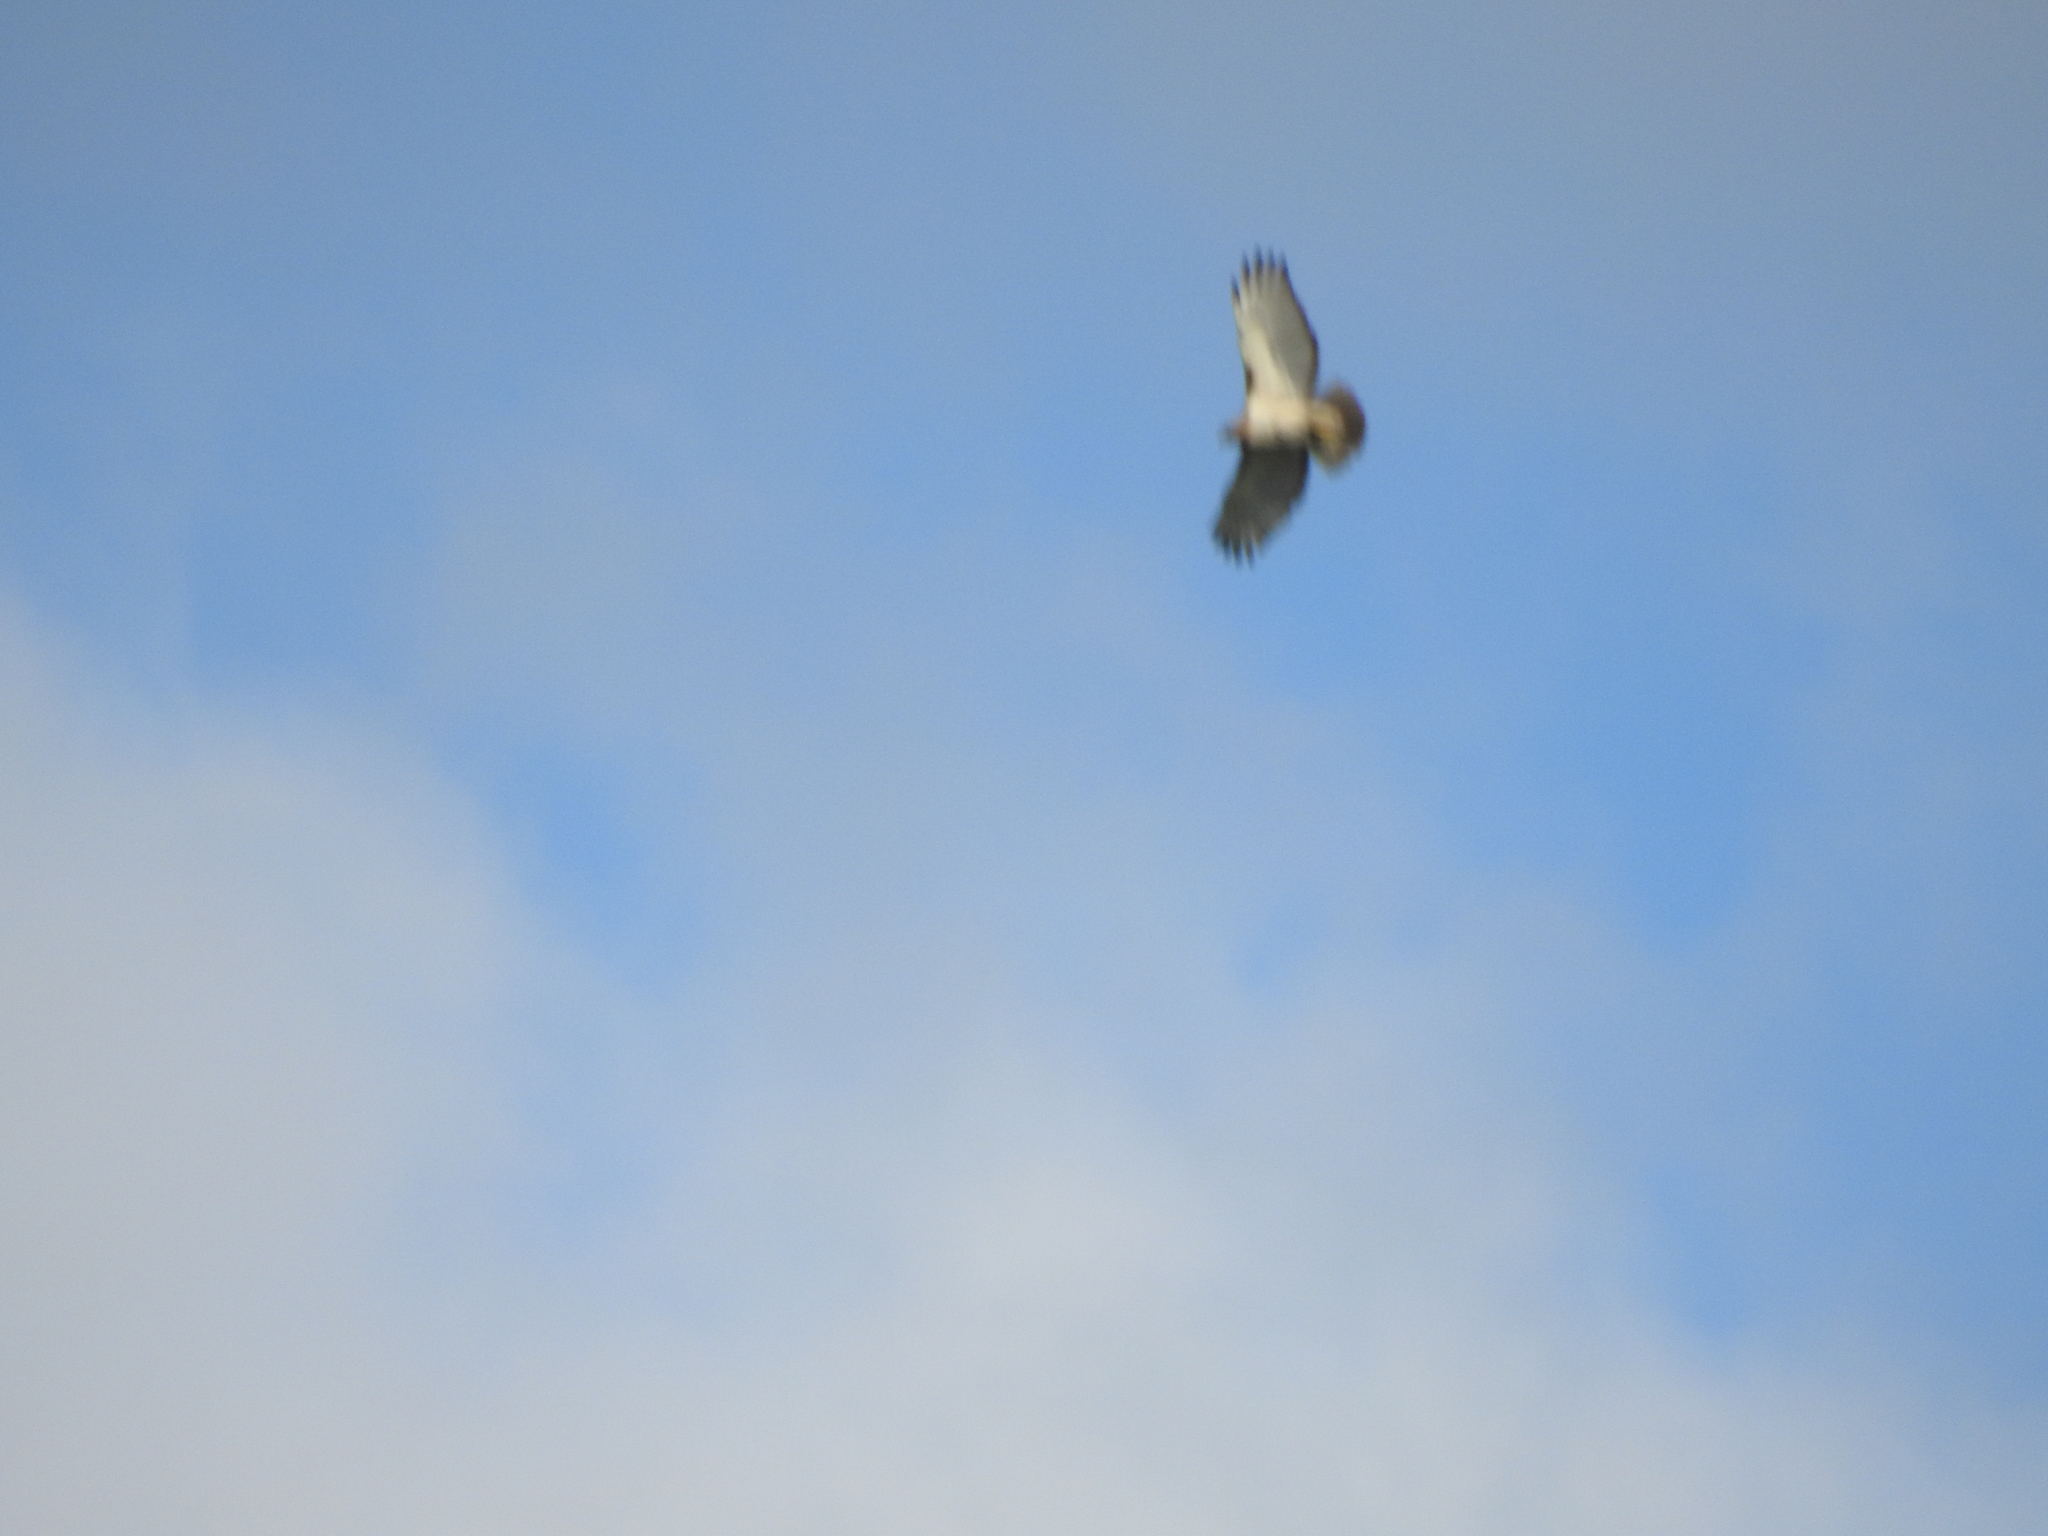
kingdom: Animalia
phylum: Chordata
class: Aves
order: Accipitriformes
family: Accipitridae
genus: Buteo
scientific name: Buteo jamaicensis
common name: Red-tailed hawk
